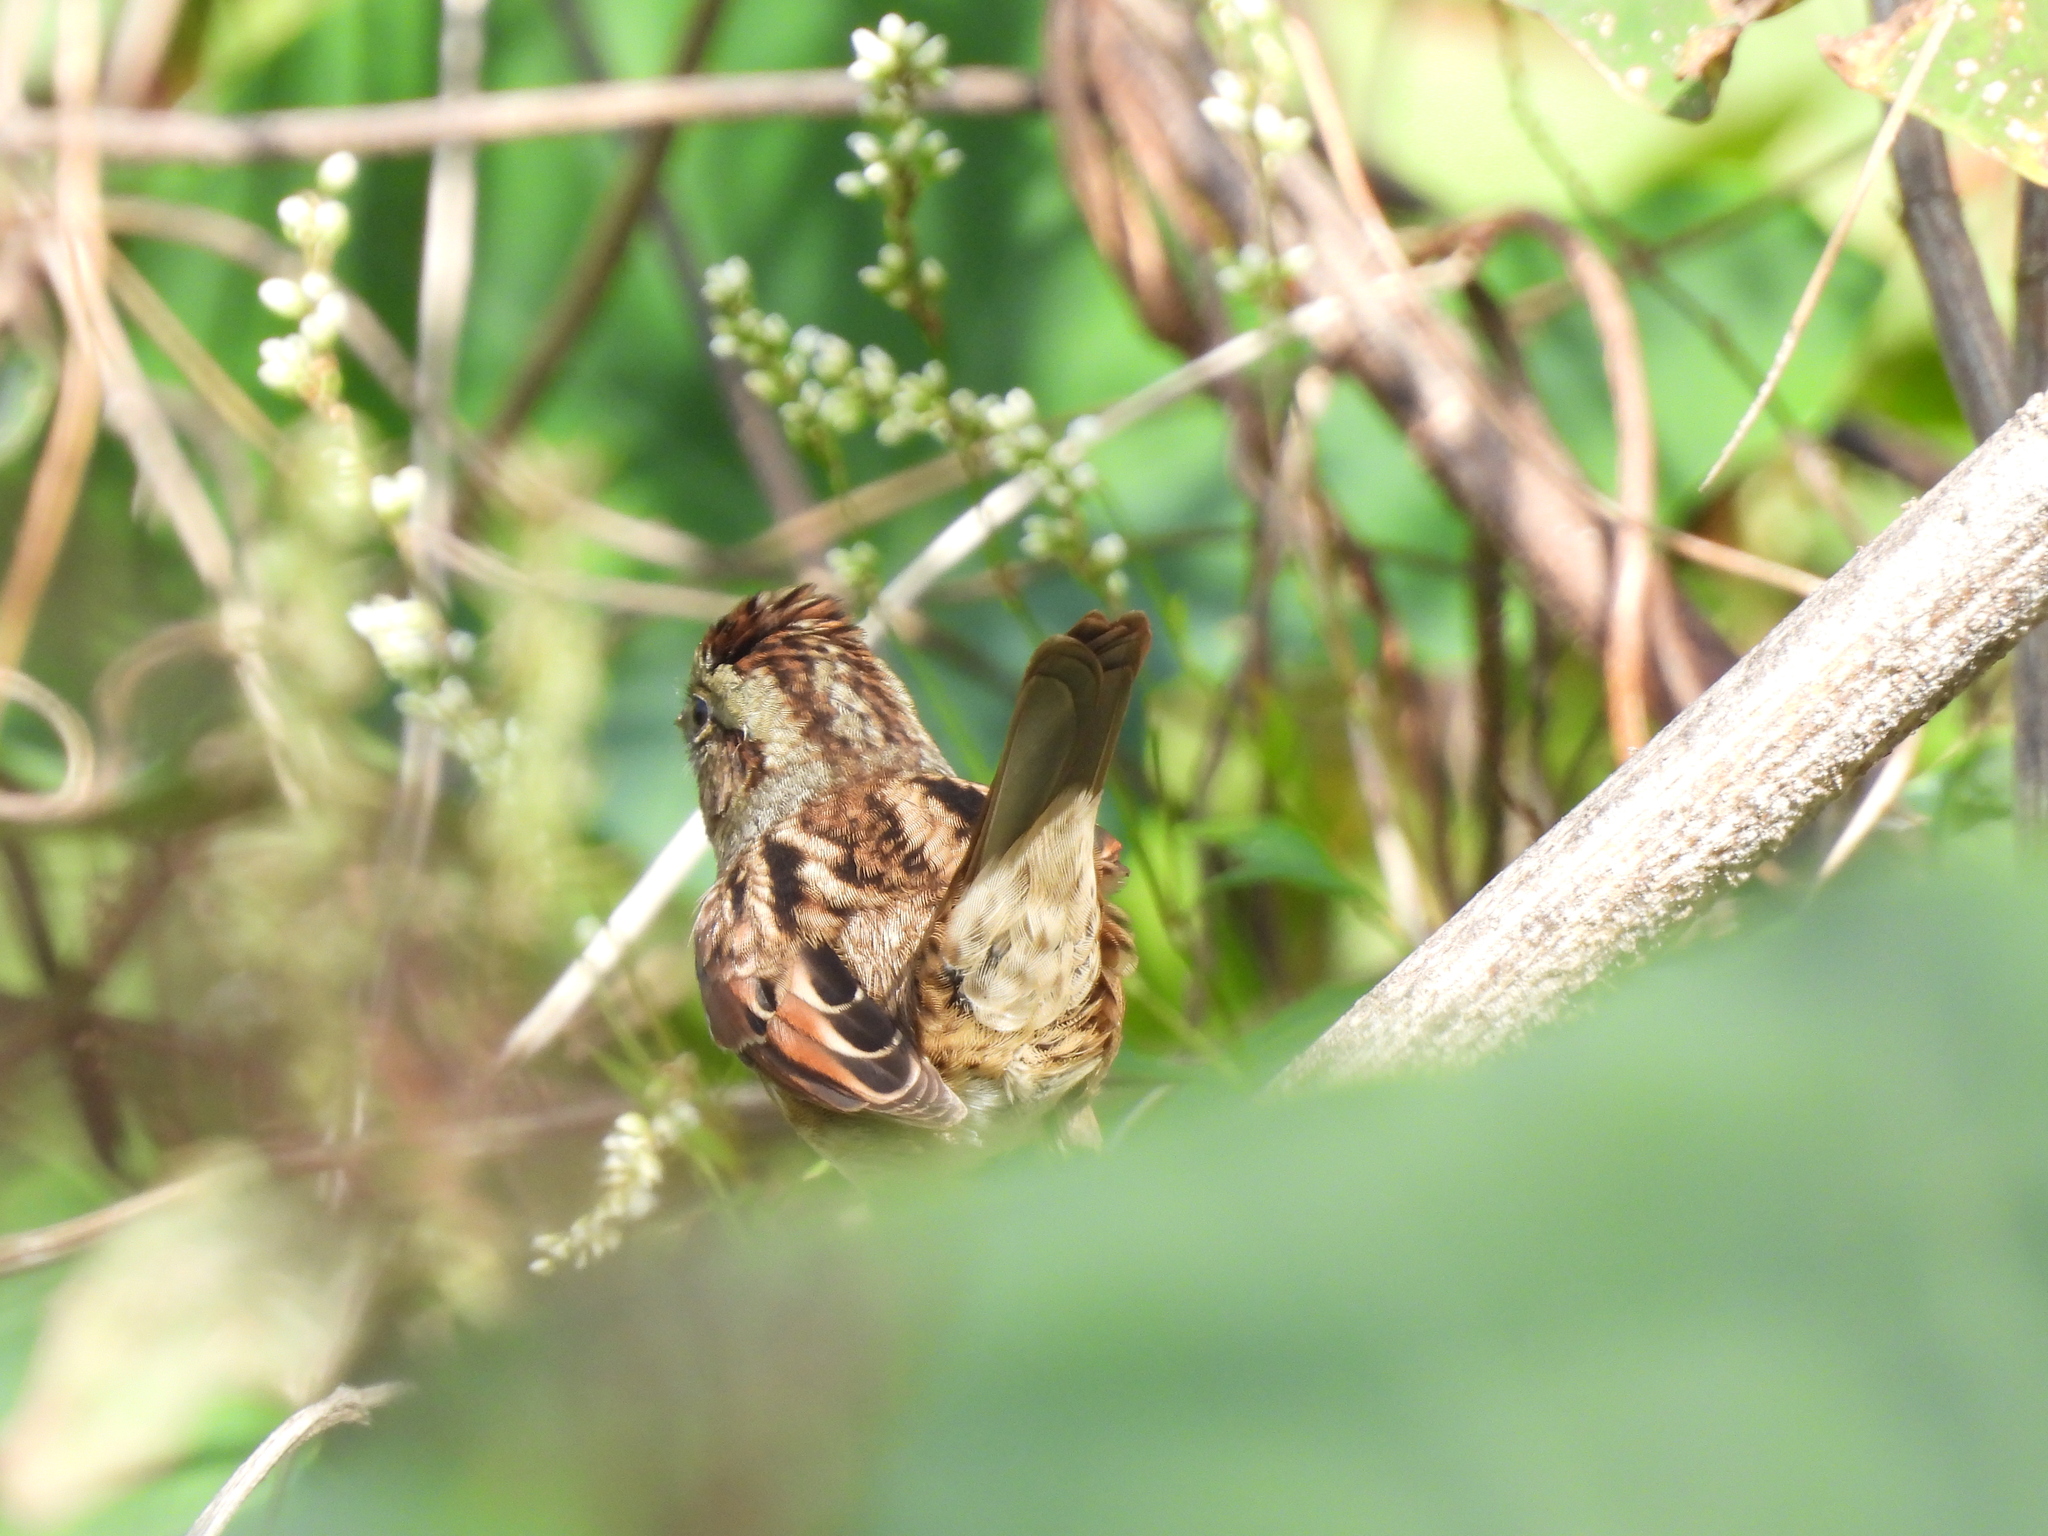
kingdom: Animalia
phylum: Chordata
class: Aves
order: Passeriformes
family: Passerellidae
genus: Melospiza
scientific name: Melospiza georgiana
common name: Swamp sparrow
